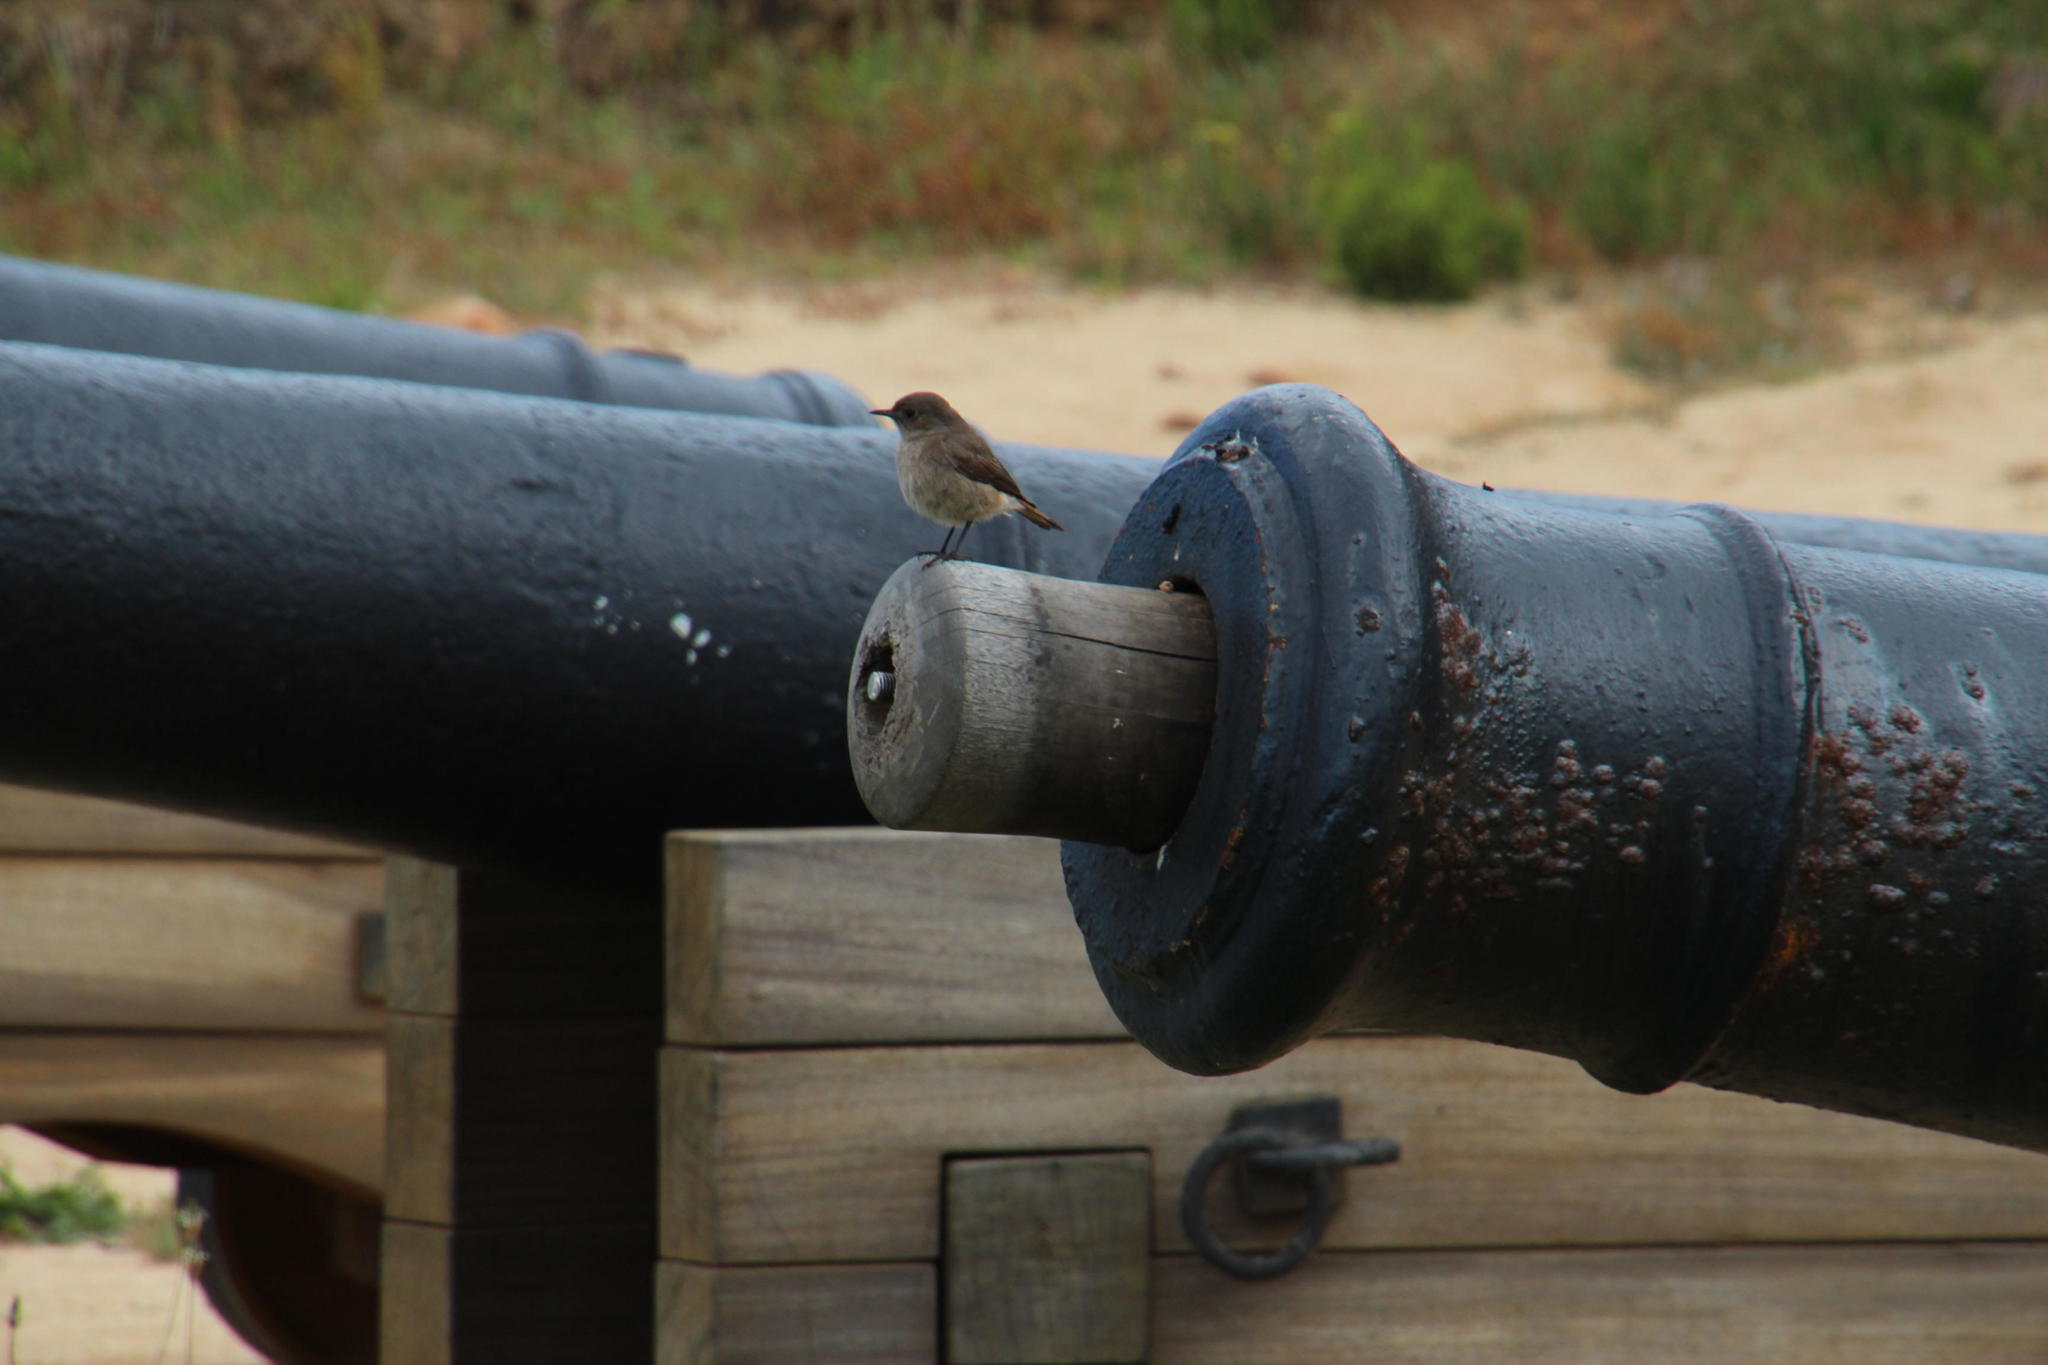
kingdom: Animalia
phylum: Chordata
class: Aves
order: Passeriformes
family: Muscicapidae
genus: Oenanthe
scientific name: Oenanthe familiaris
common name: Familiar chat
